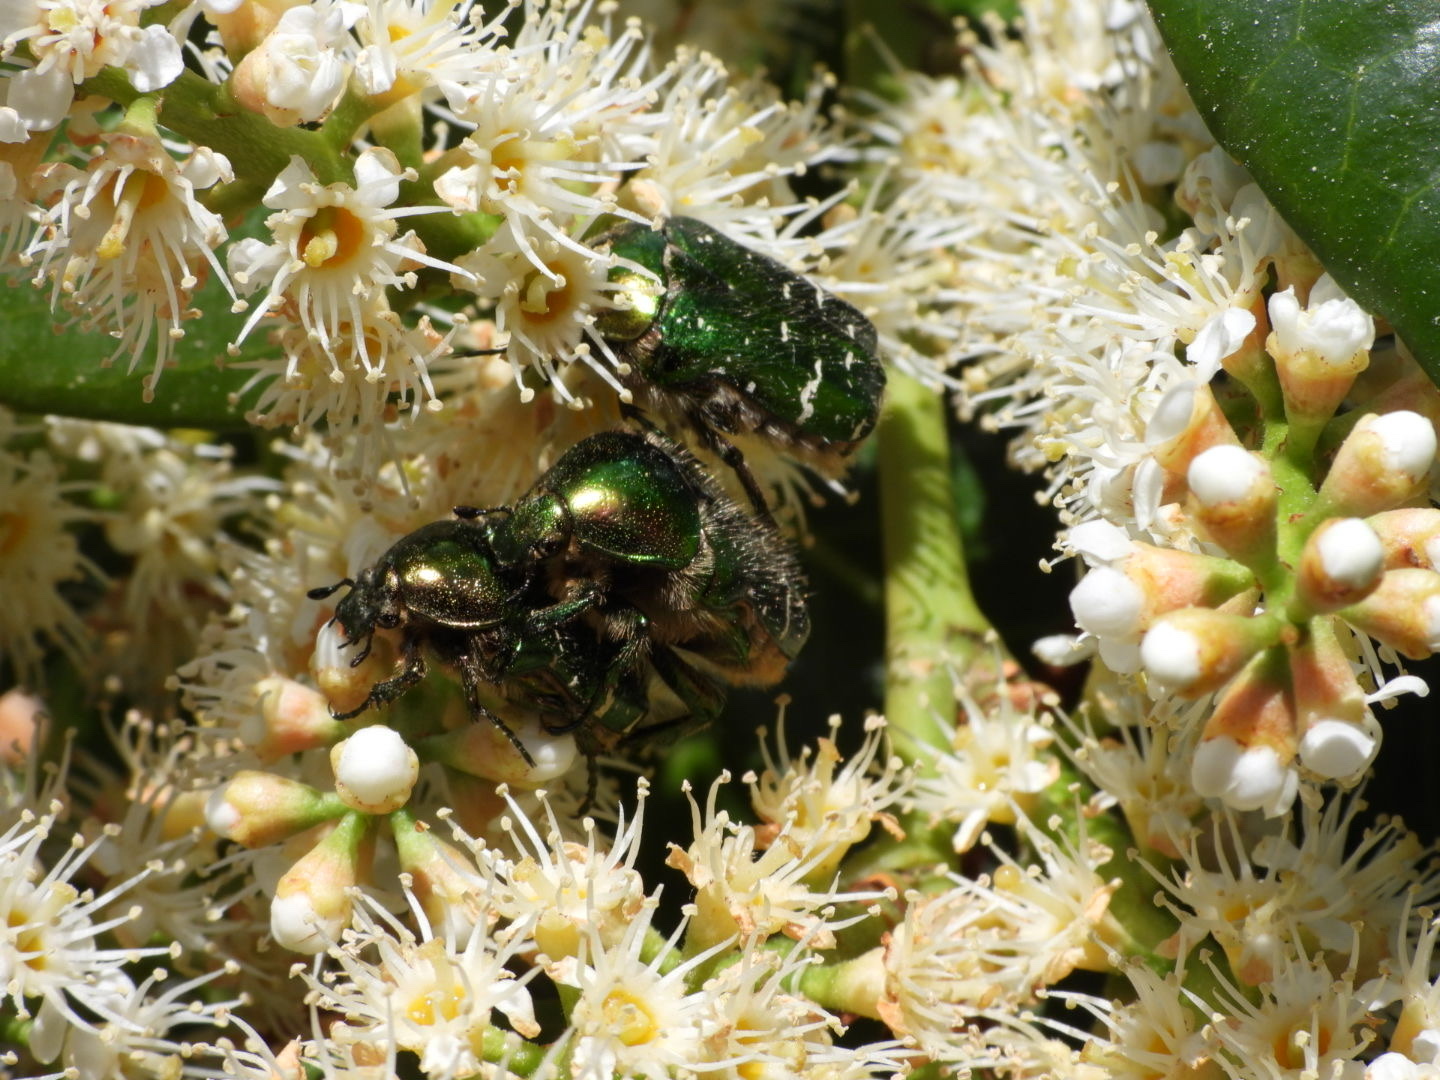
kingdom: Animalia
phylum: Arthropoda
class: Insecta
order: Coleoptera
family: Scarabaeidae
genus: Cetonia
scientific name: Cetonia aurata
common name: Rose chafer
